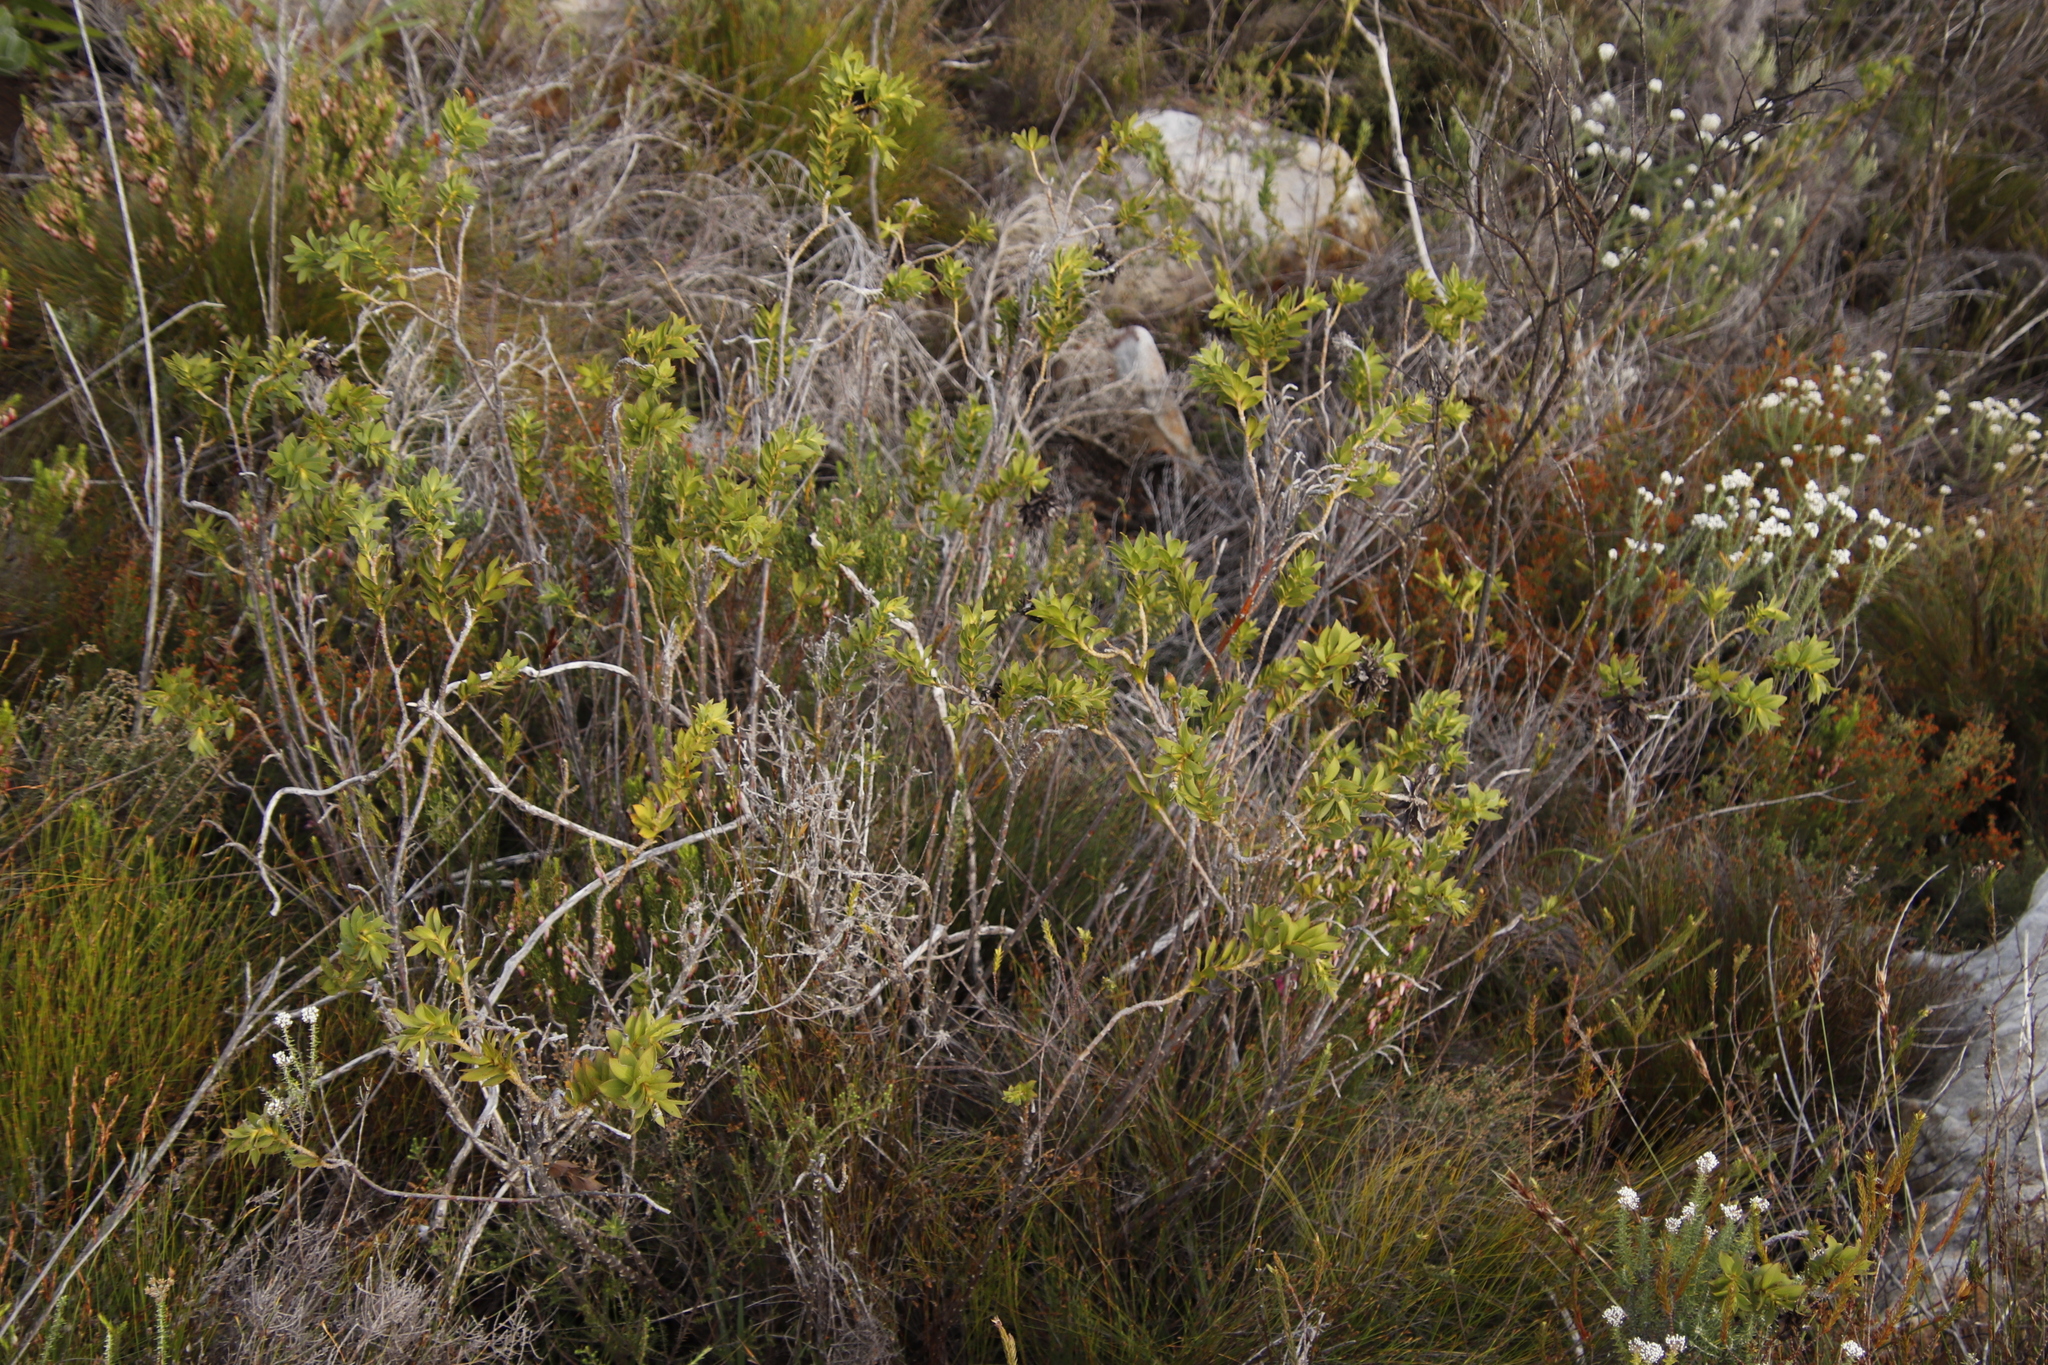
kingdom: Plantae
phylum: Tracheophyta
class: Magnoliopsida
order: Fabales
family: Fabaceae
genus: Liparia
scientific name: Liparia splendens
